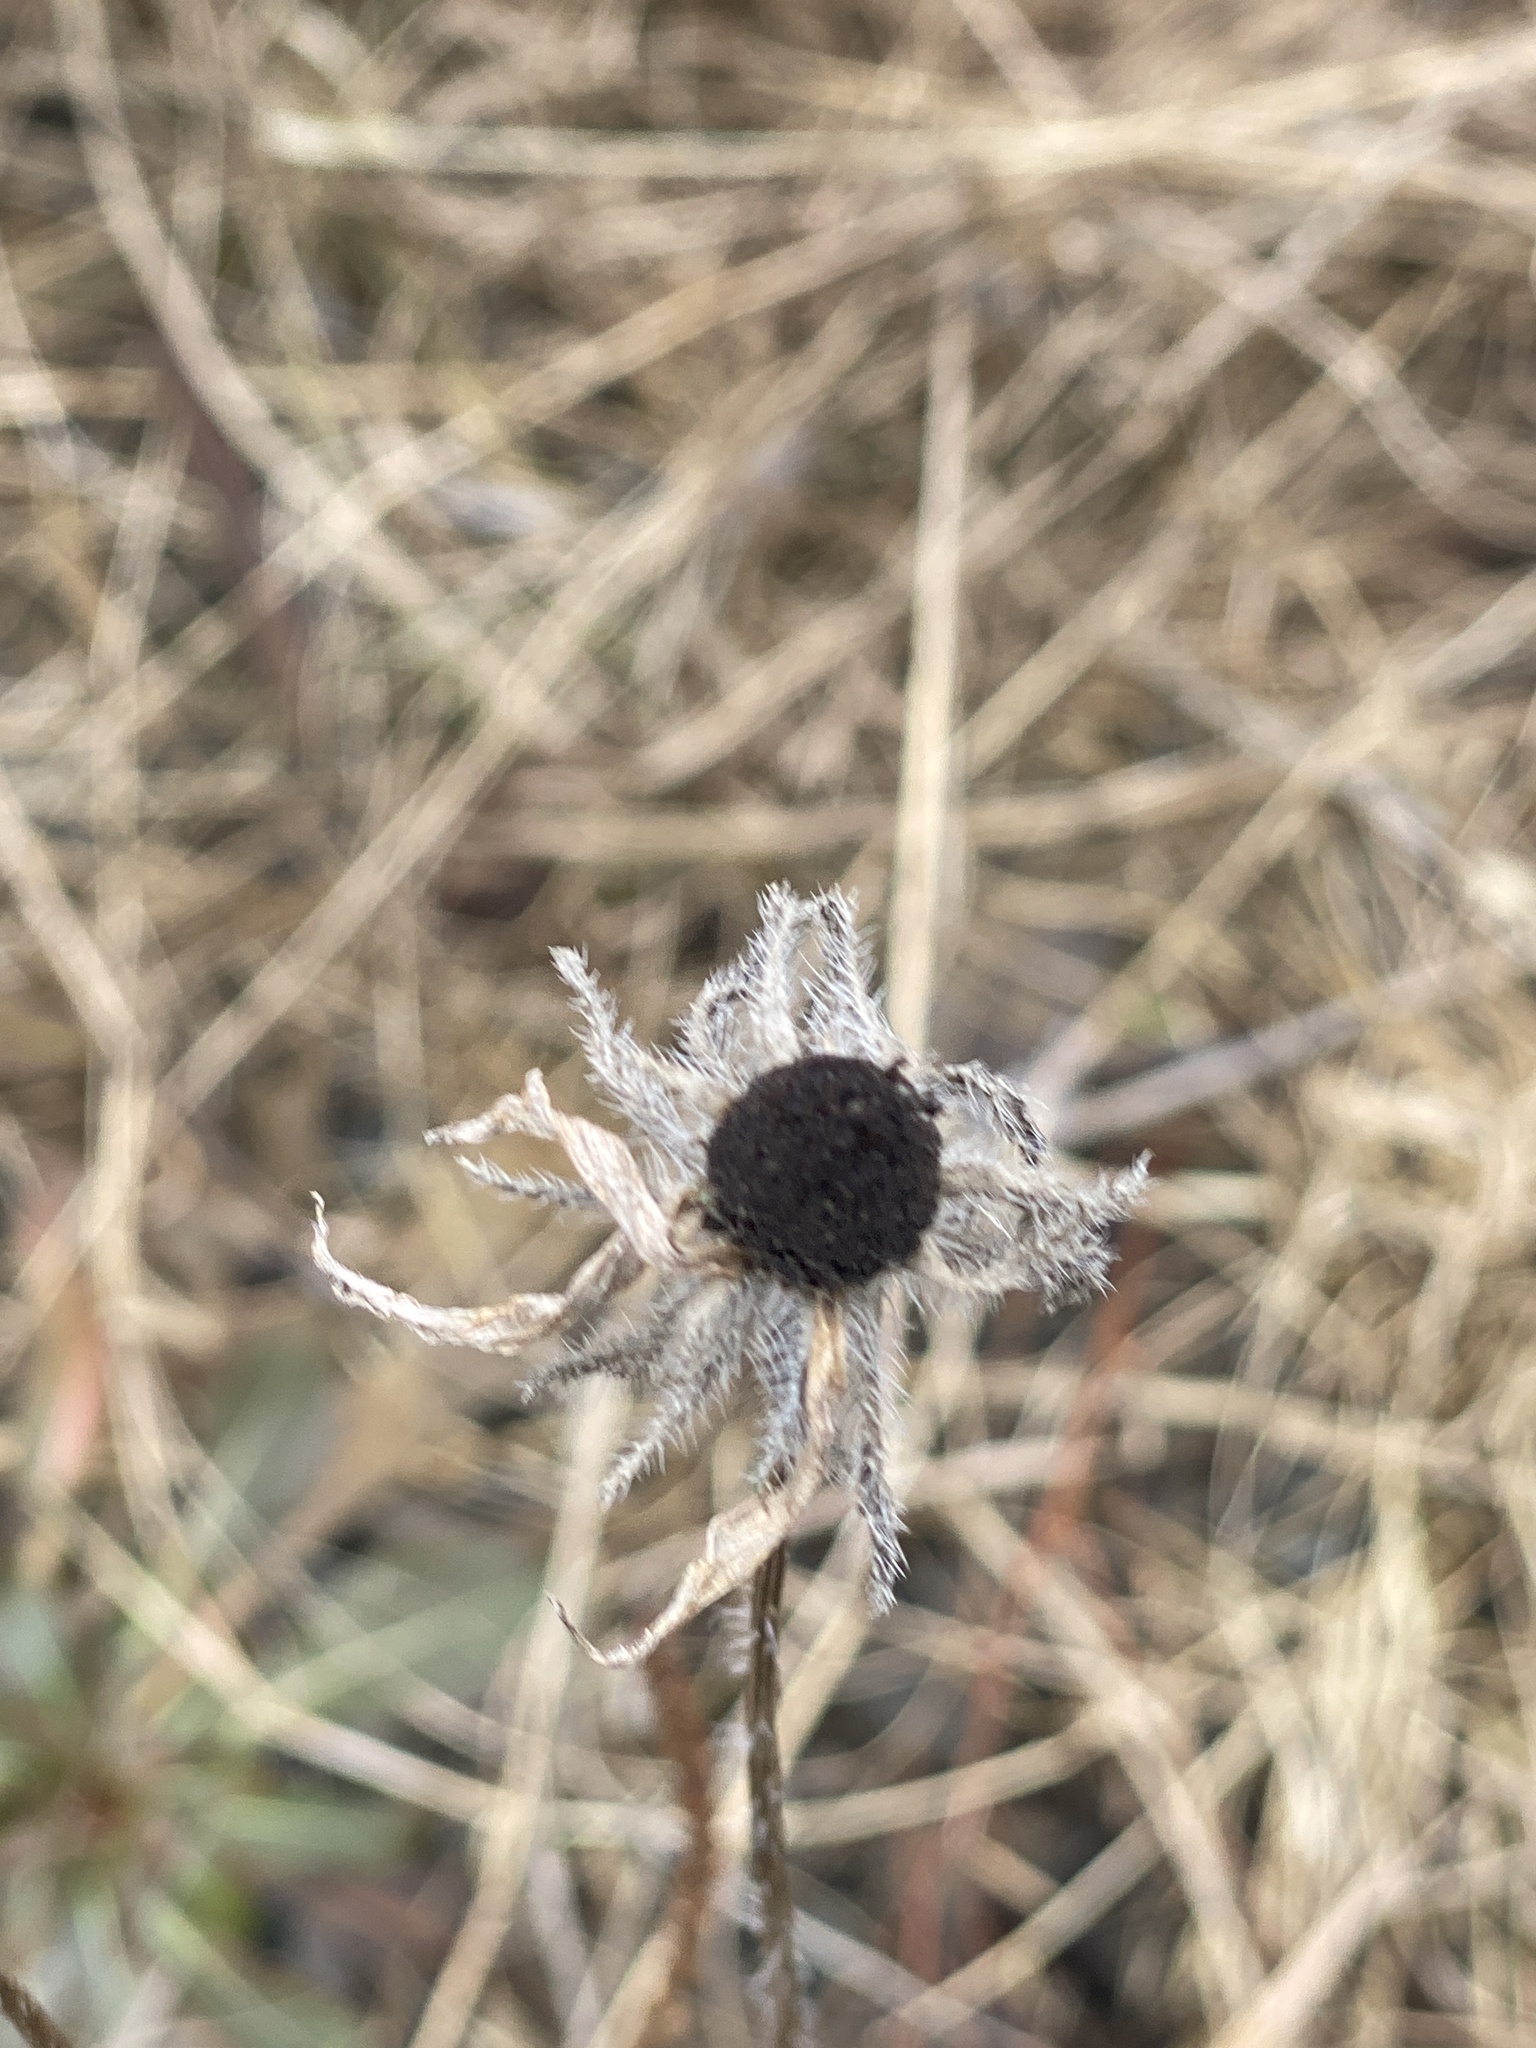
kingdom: Plantae
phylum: Tracheophyta
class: Magnoliopsida
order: Asterales
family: Asteraceae
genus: Rudbeckia
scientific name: Rudbeckia hirta
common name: Black-eyed-susan
